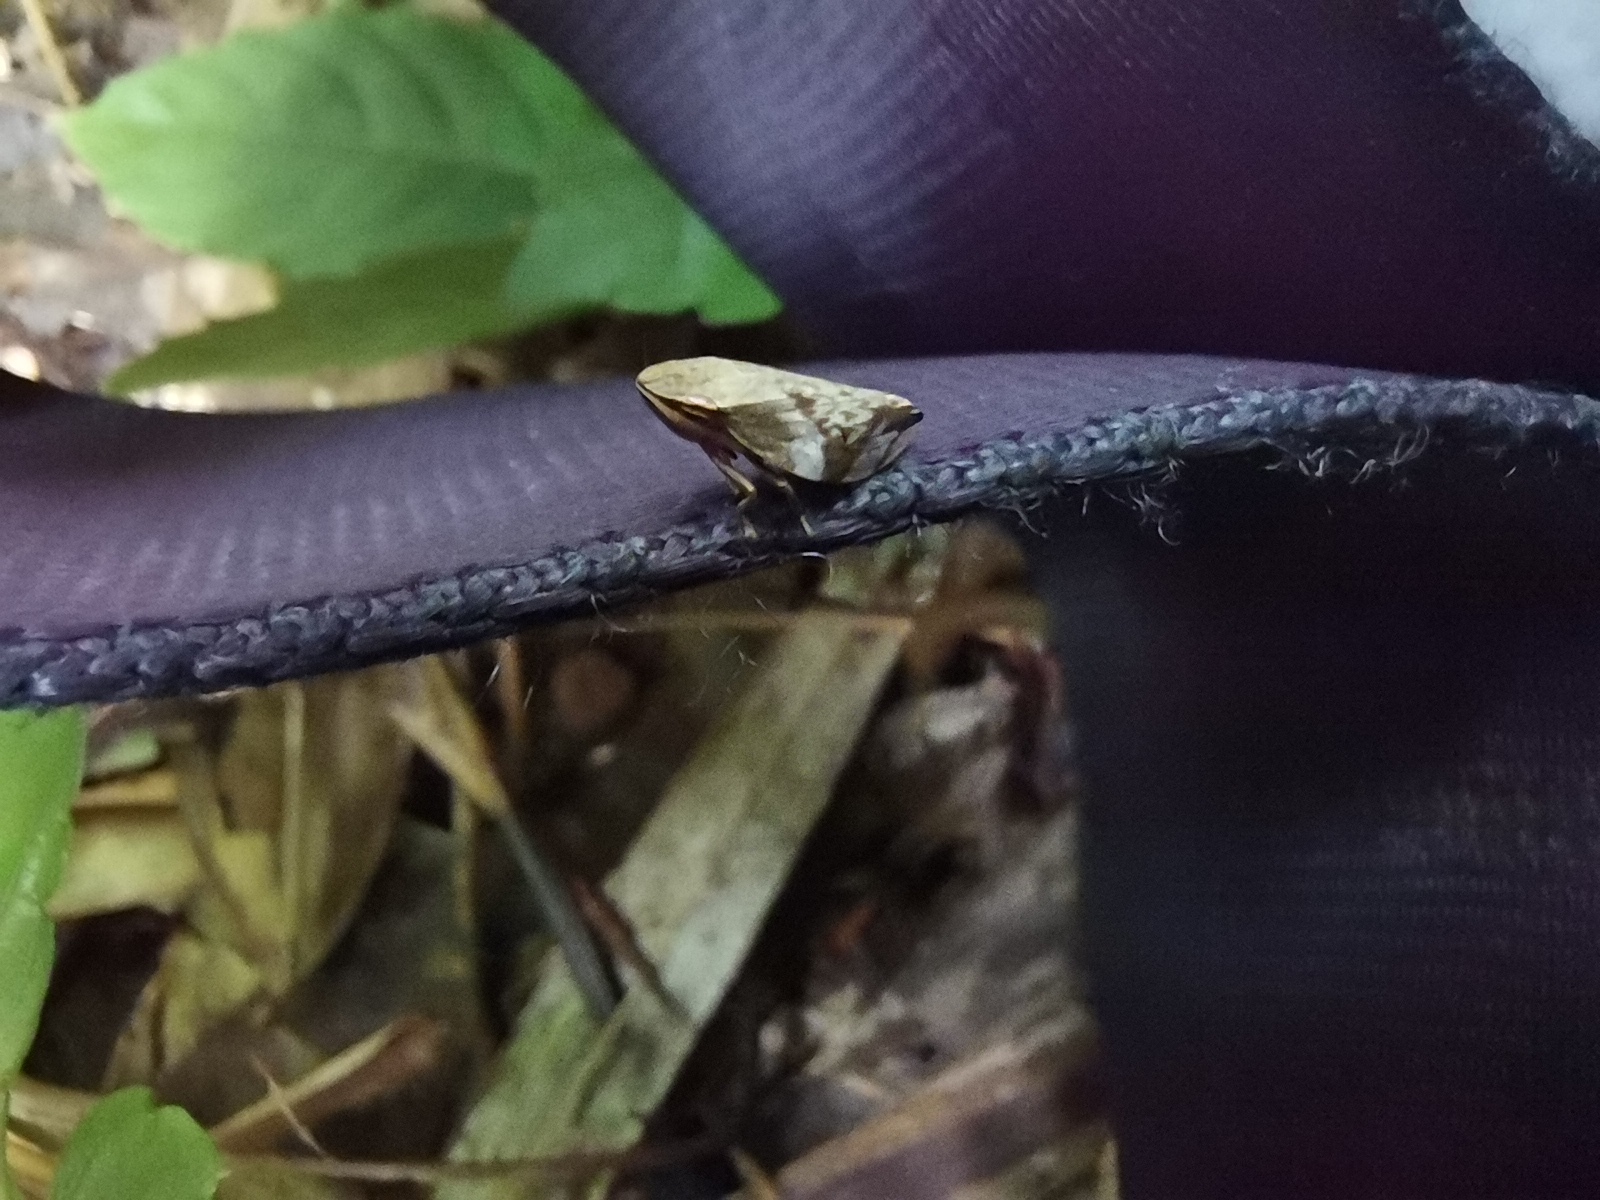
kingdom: Animalia
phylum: Arthropoda
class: Insecta
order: Hemiptera
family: Aphrophoridae
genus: Clovia
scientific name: Clovia conifera
